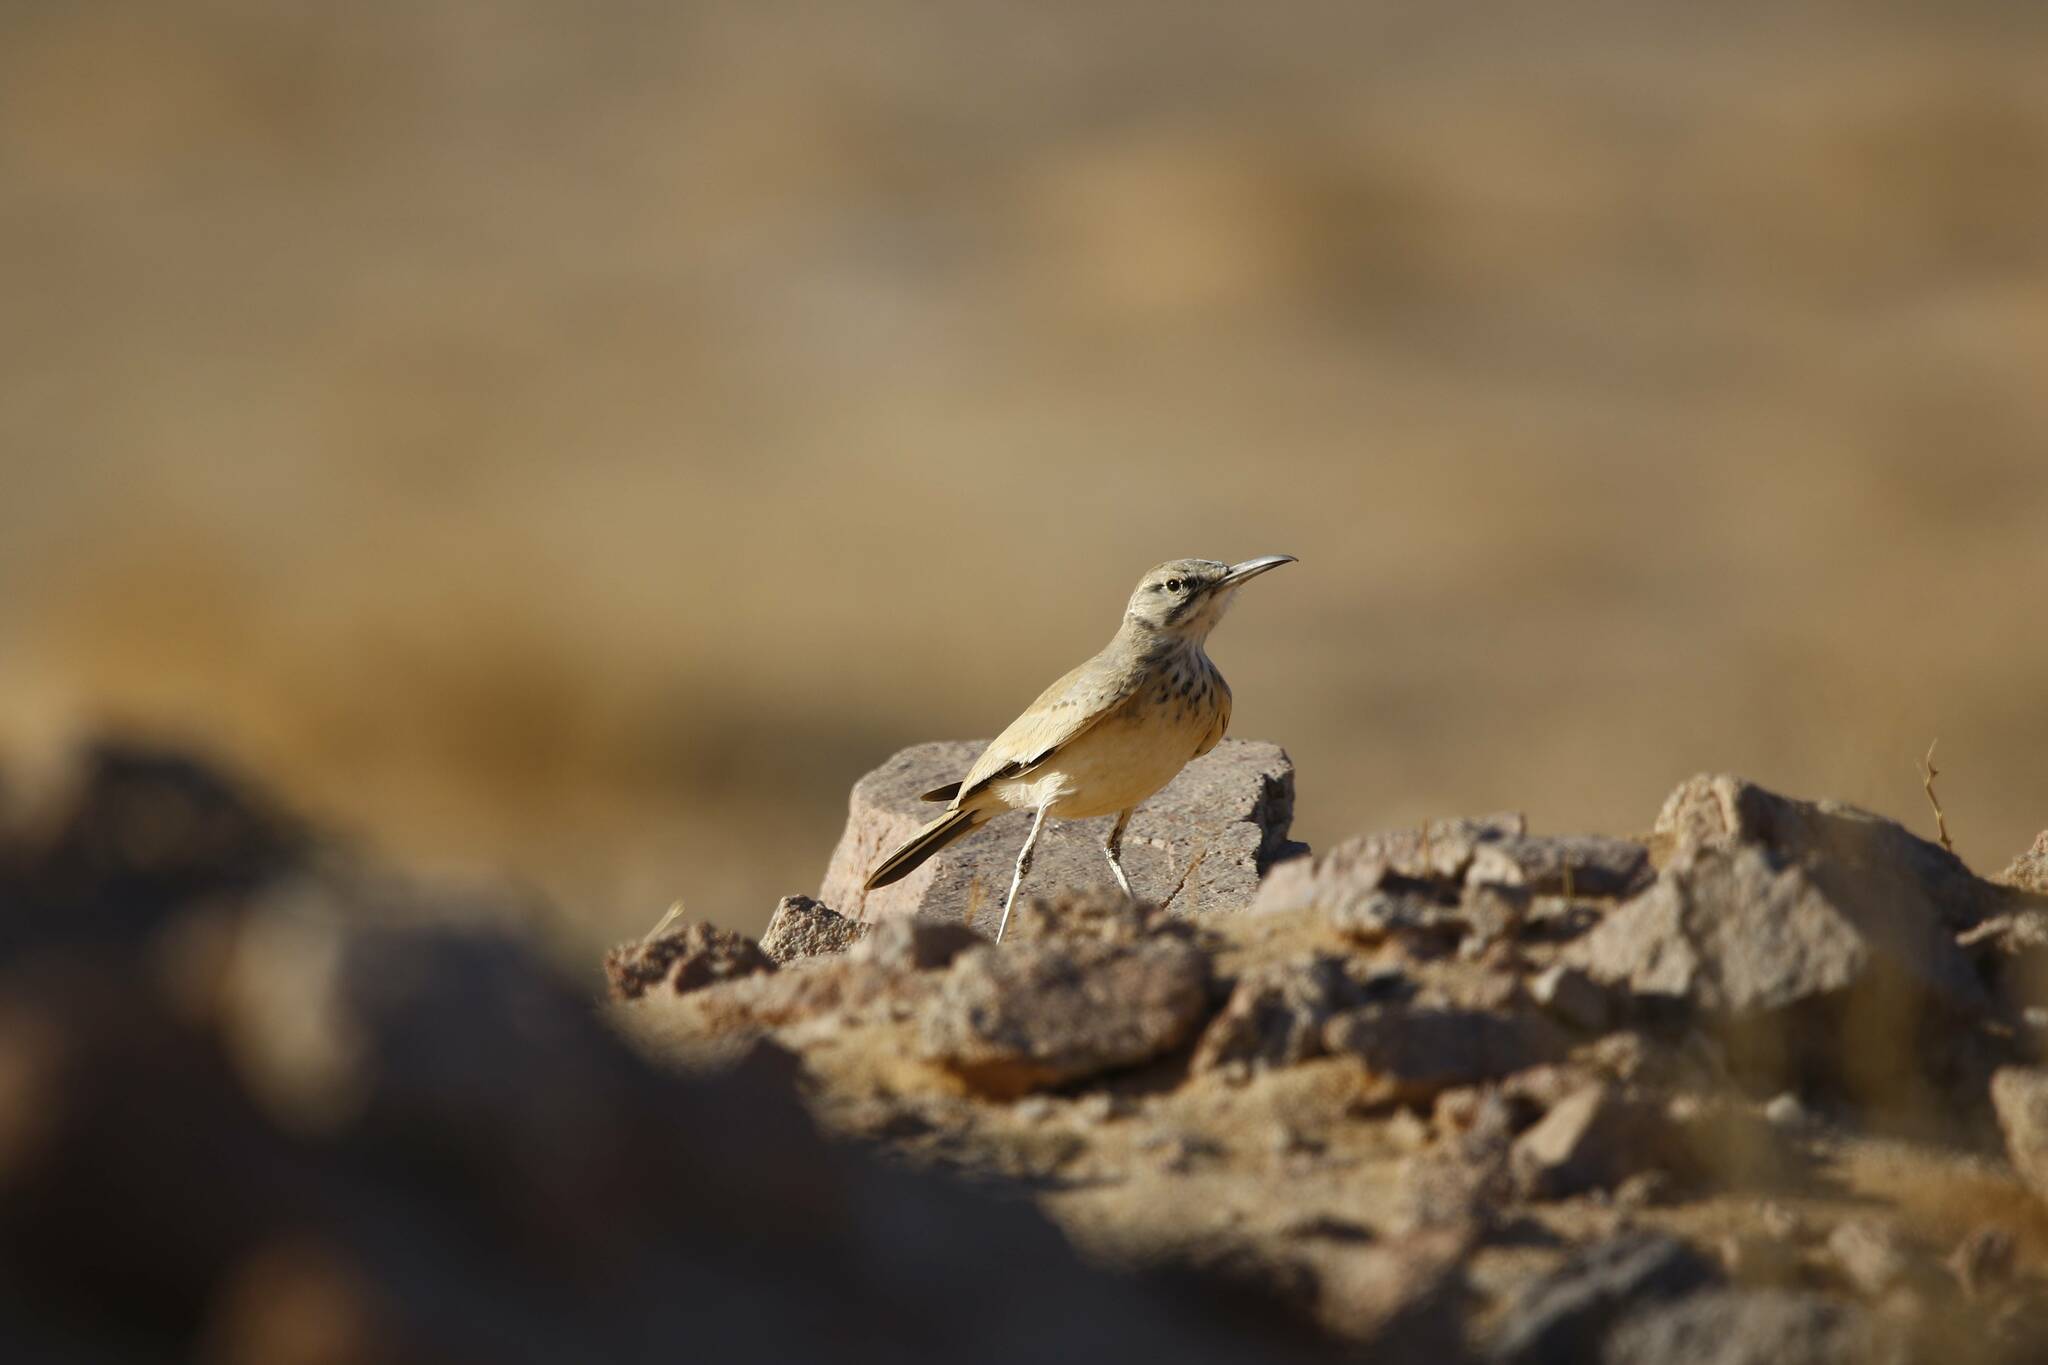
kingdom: Animalia
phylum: Chordata
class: Aves
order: Passeriformes
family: Alaudidae
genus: Alaemon
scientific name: Alaemon alaudipes
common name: Greater hoopoe-lark
